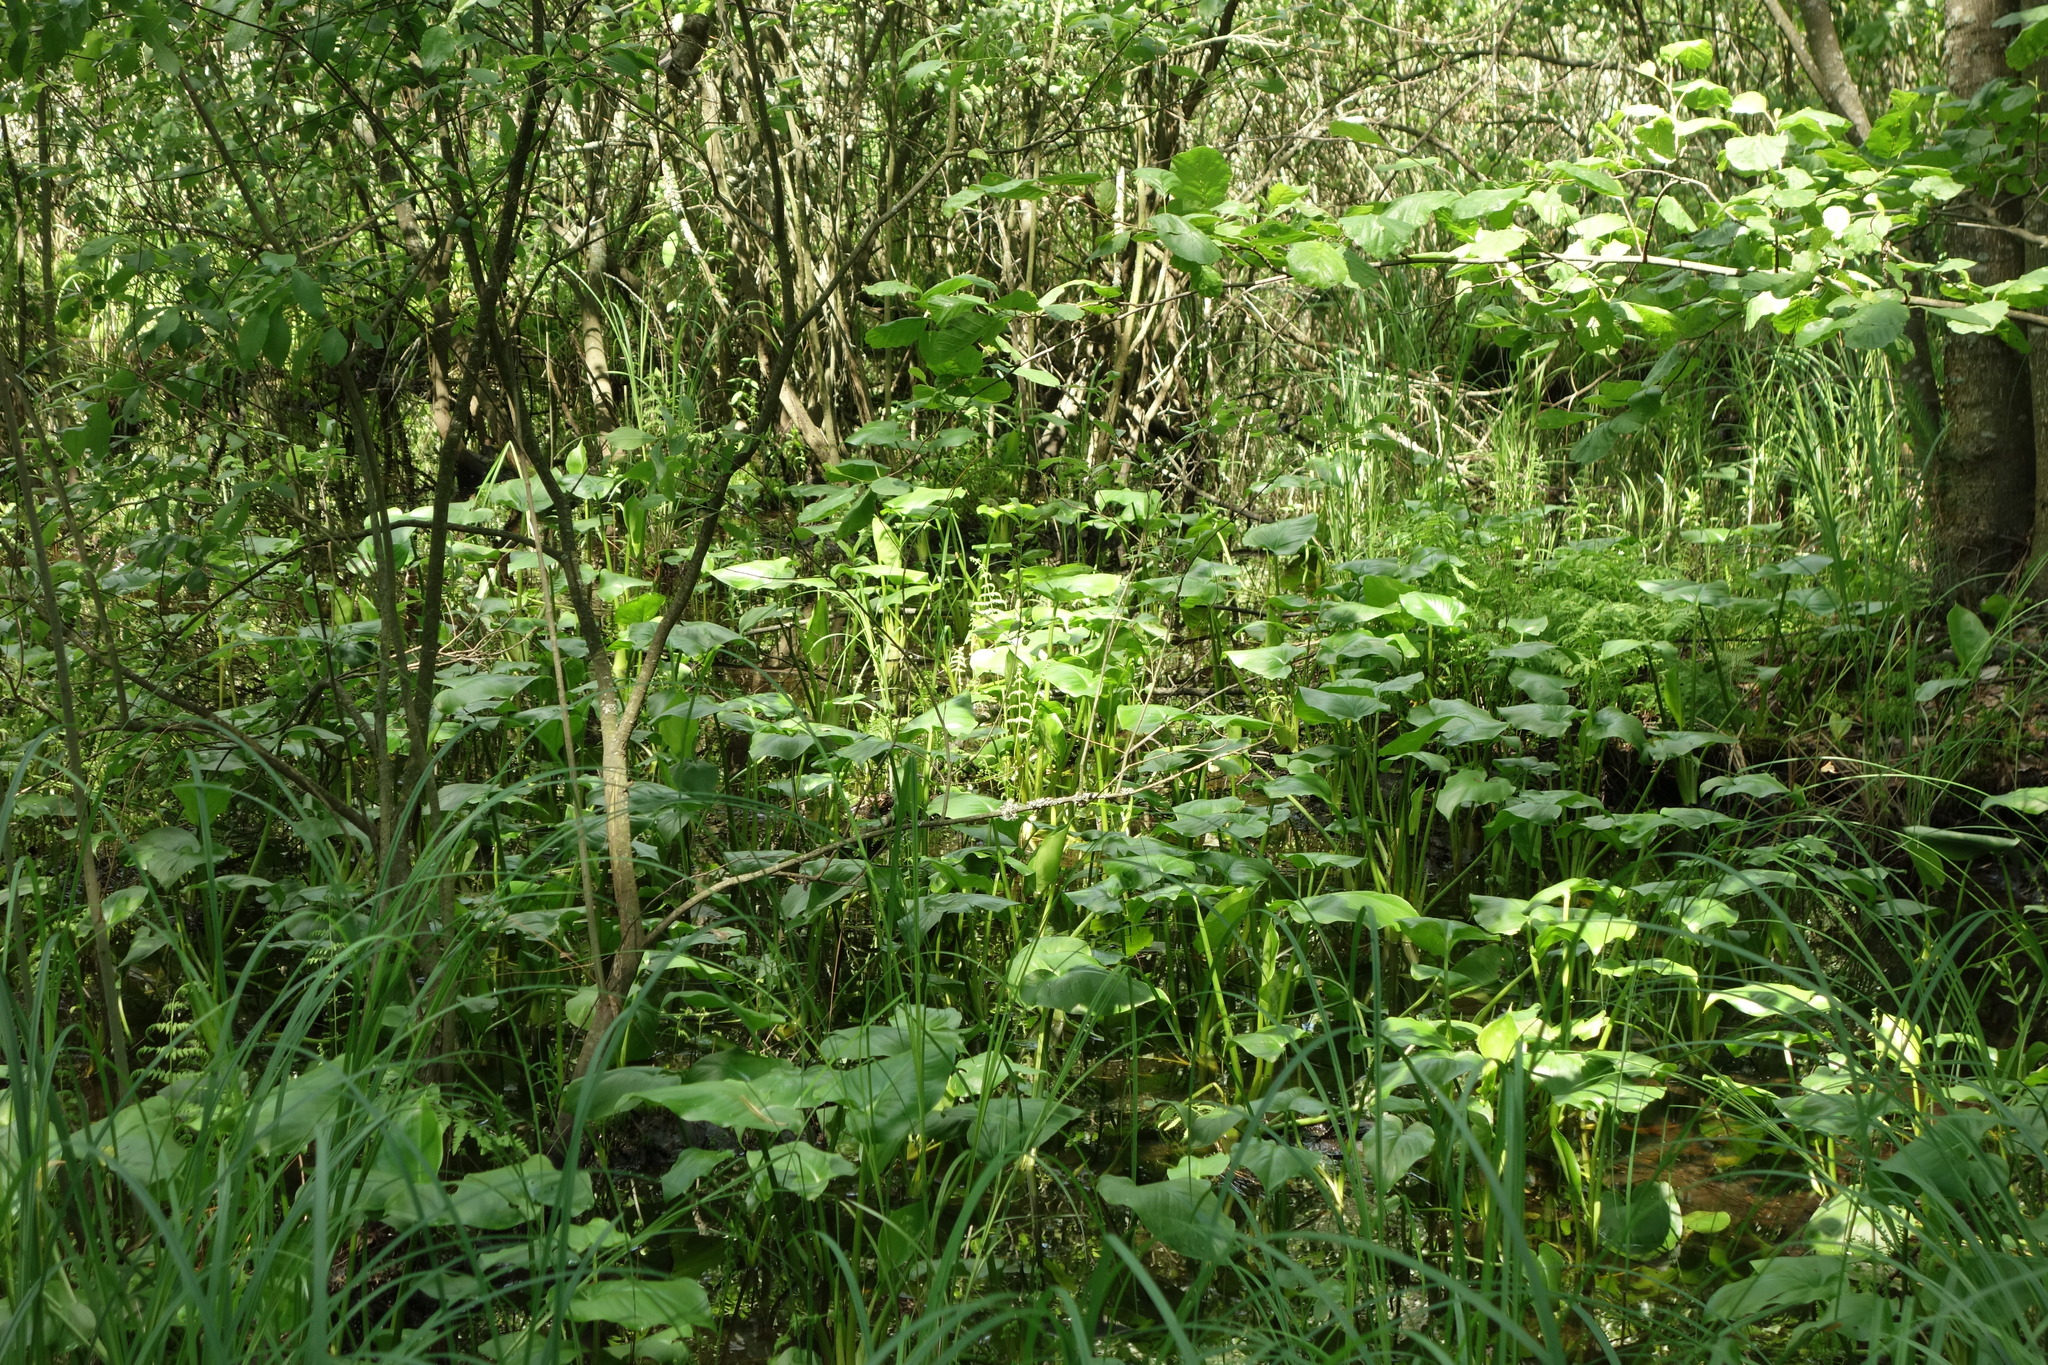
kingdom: Plantae
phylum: Tracheophyta
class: Liliopsida
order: Alismatales
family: Araceae
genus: Calla
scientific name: Calla palustris
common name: Bog arum
